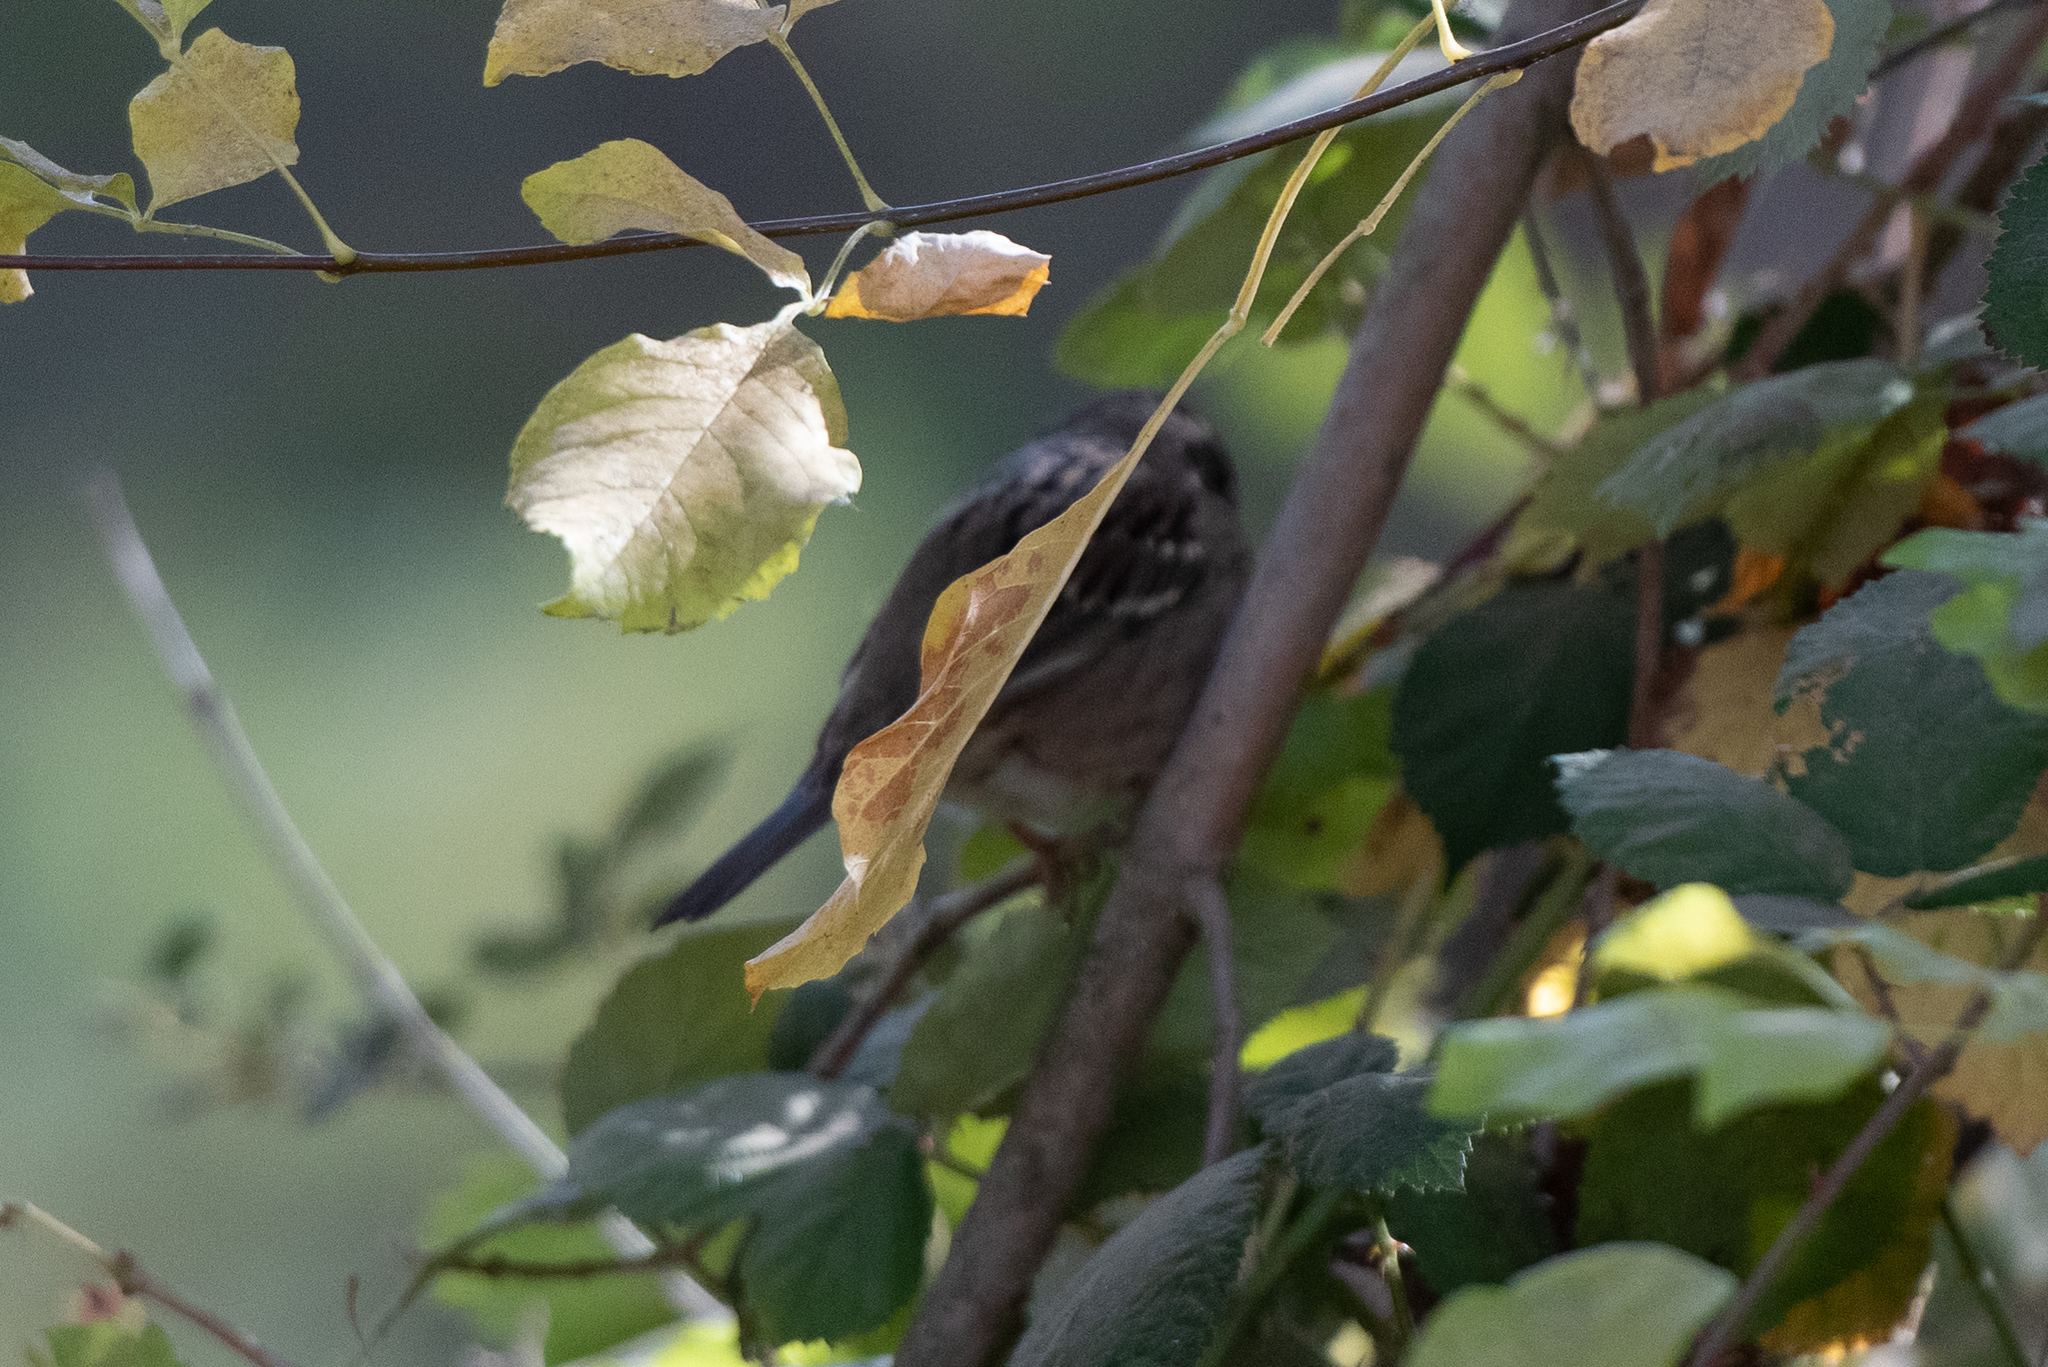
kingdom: Animalia
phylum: Chordata
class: Aves
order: Passeriformes
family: Passerellidae
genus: Zonotrichia
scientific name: Zonotrichia atricapilla
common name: Golden-crowned sparrow
